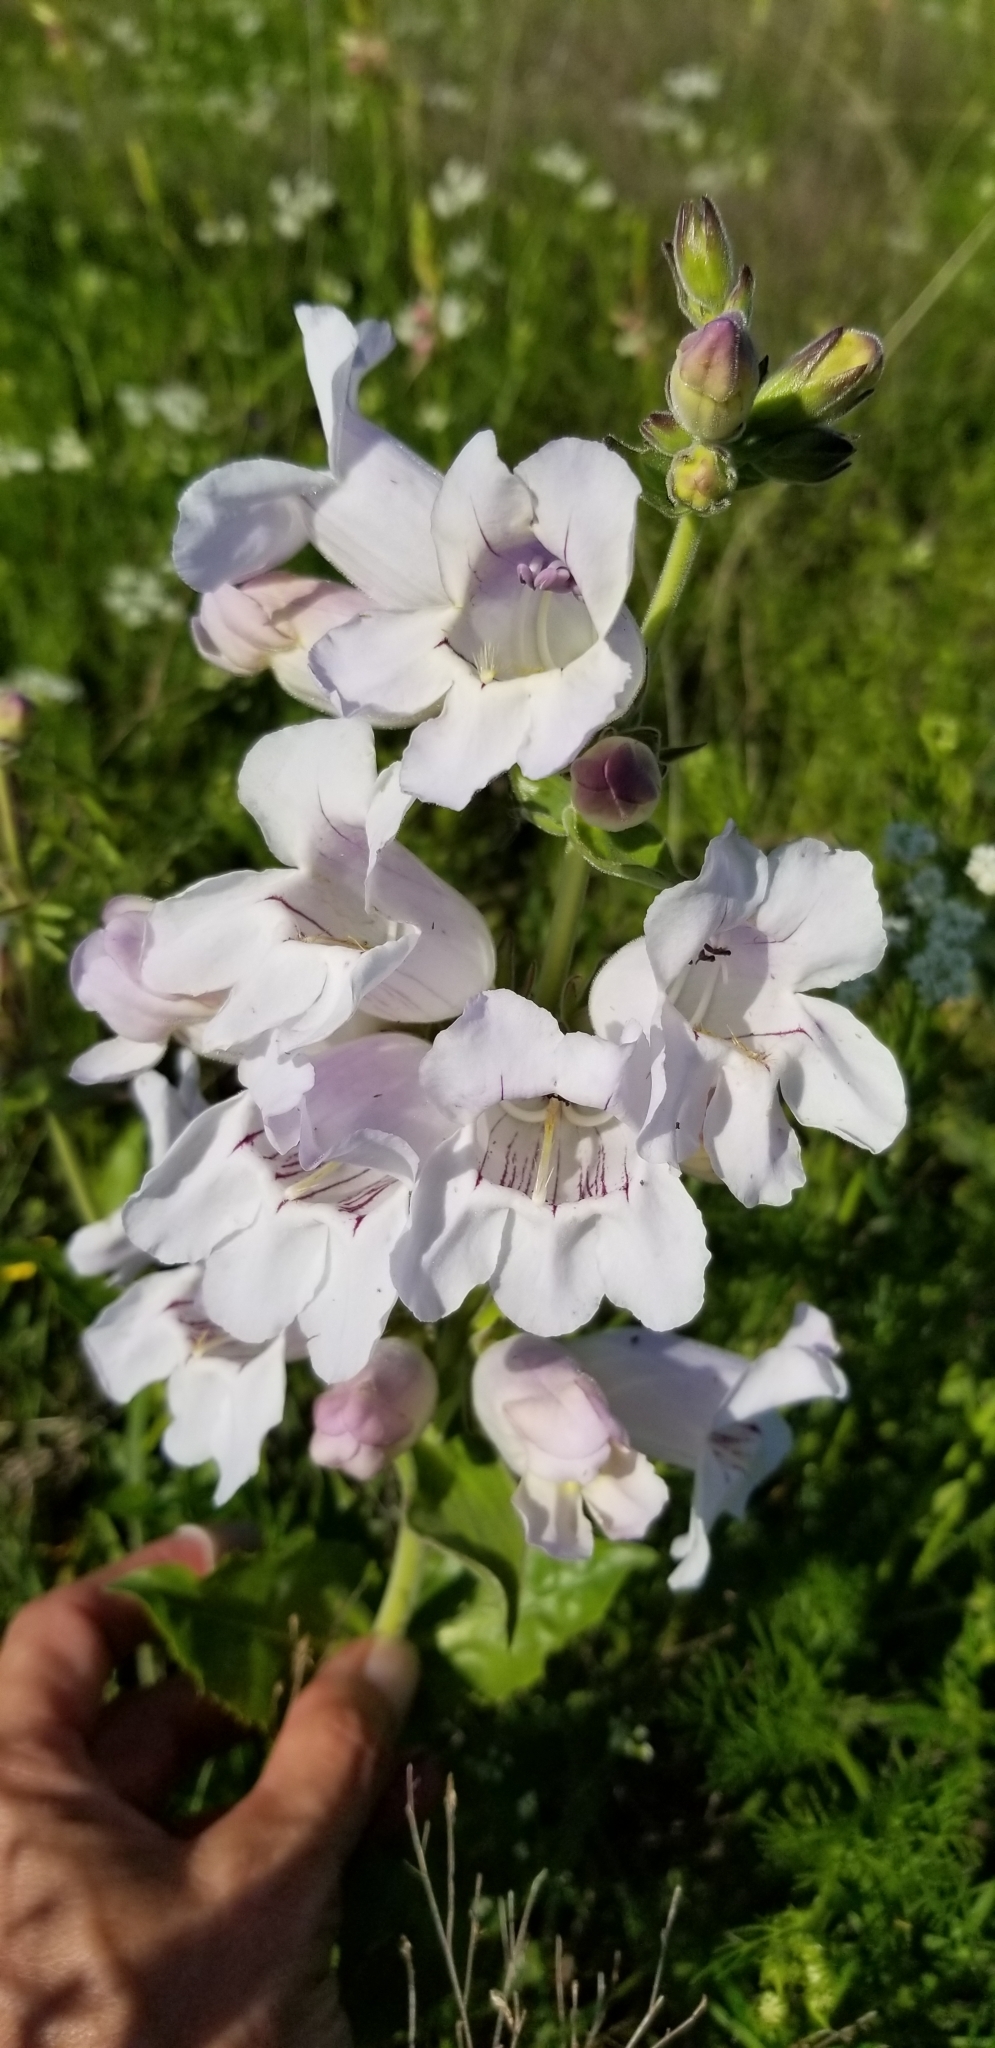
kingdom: Plantae
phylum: Tracheophyta
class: Magnoliopsida
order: Lamiales
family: Plantaginaceae
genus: Penstemon
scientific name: Penstemon cobaea
